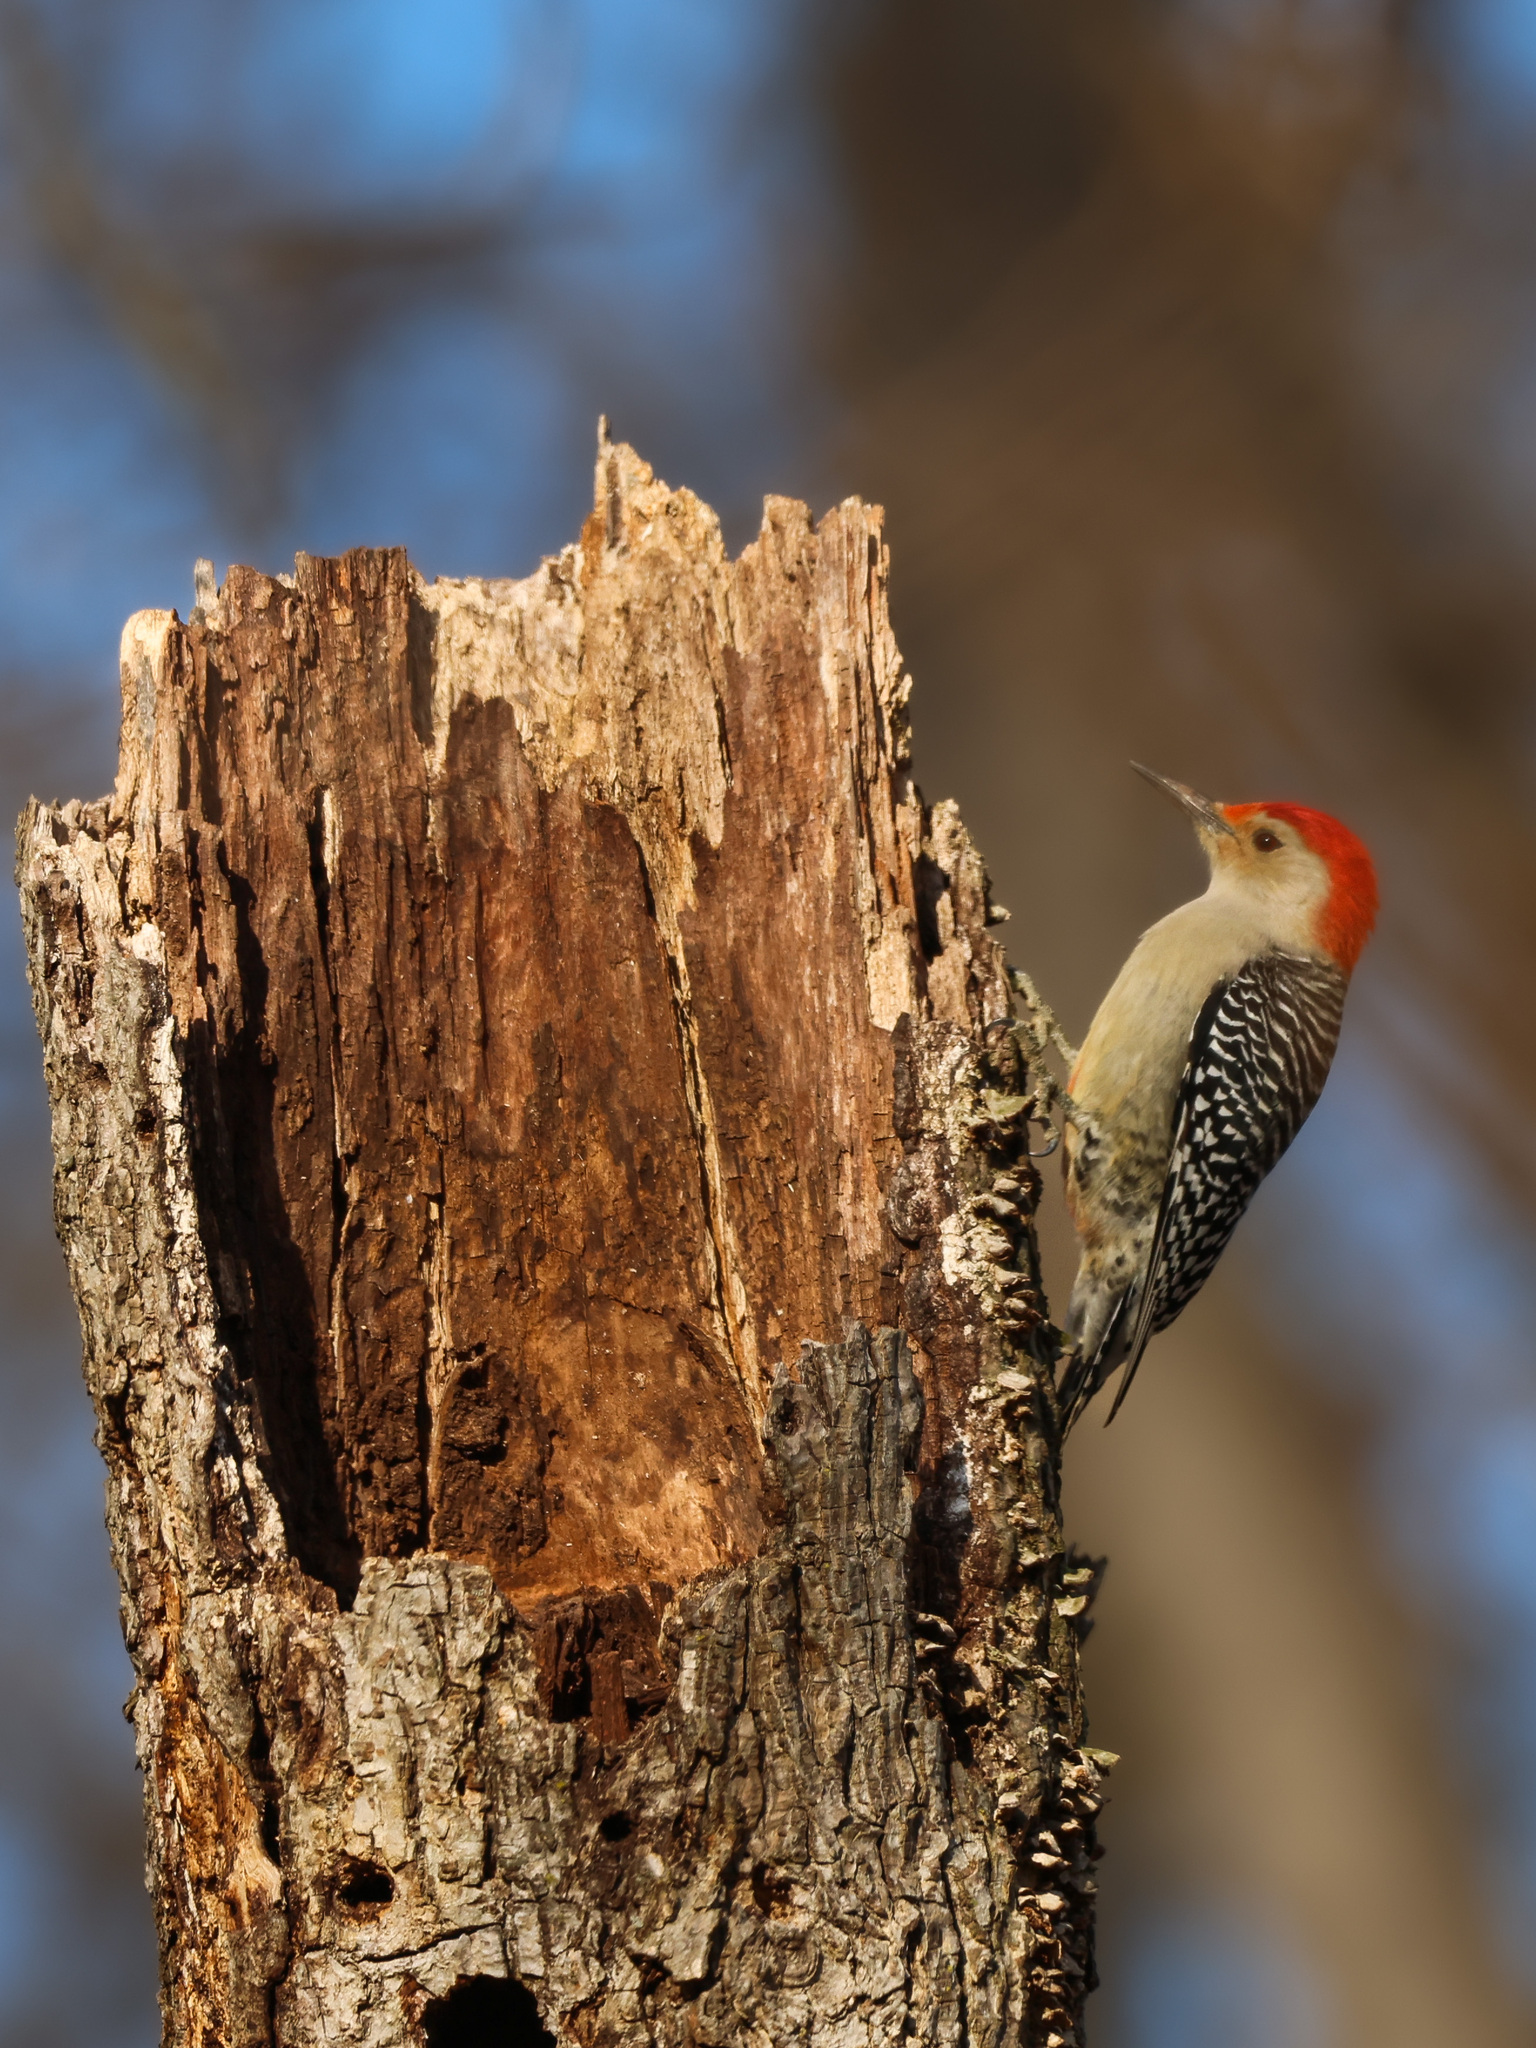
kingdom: Animalia
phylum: Chordata
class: Aves
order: Piciformes
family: Picidae
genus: Melanerpes
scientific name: Melanerpes carolinus
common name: Red-bellied woodpecker
